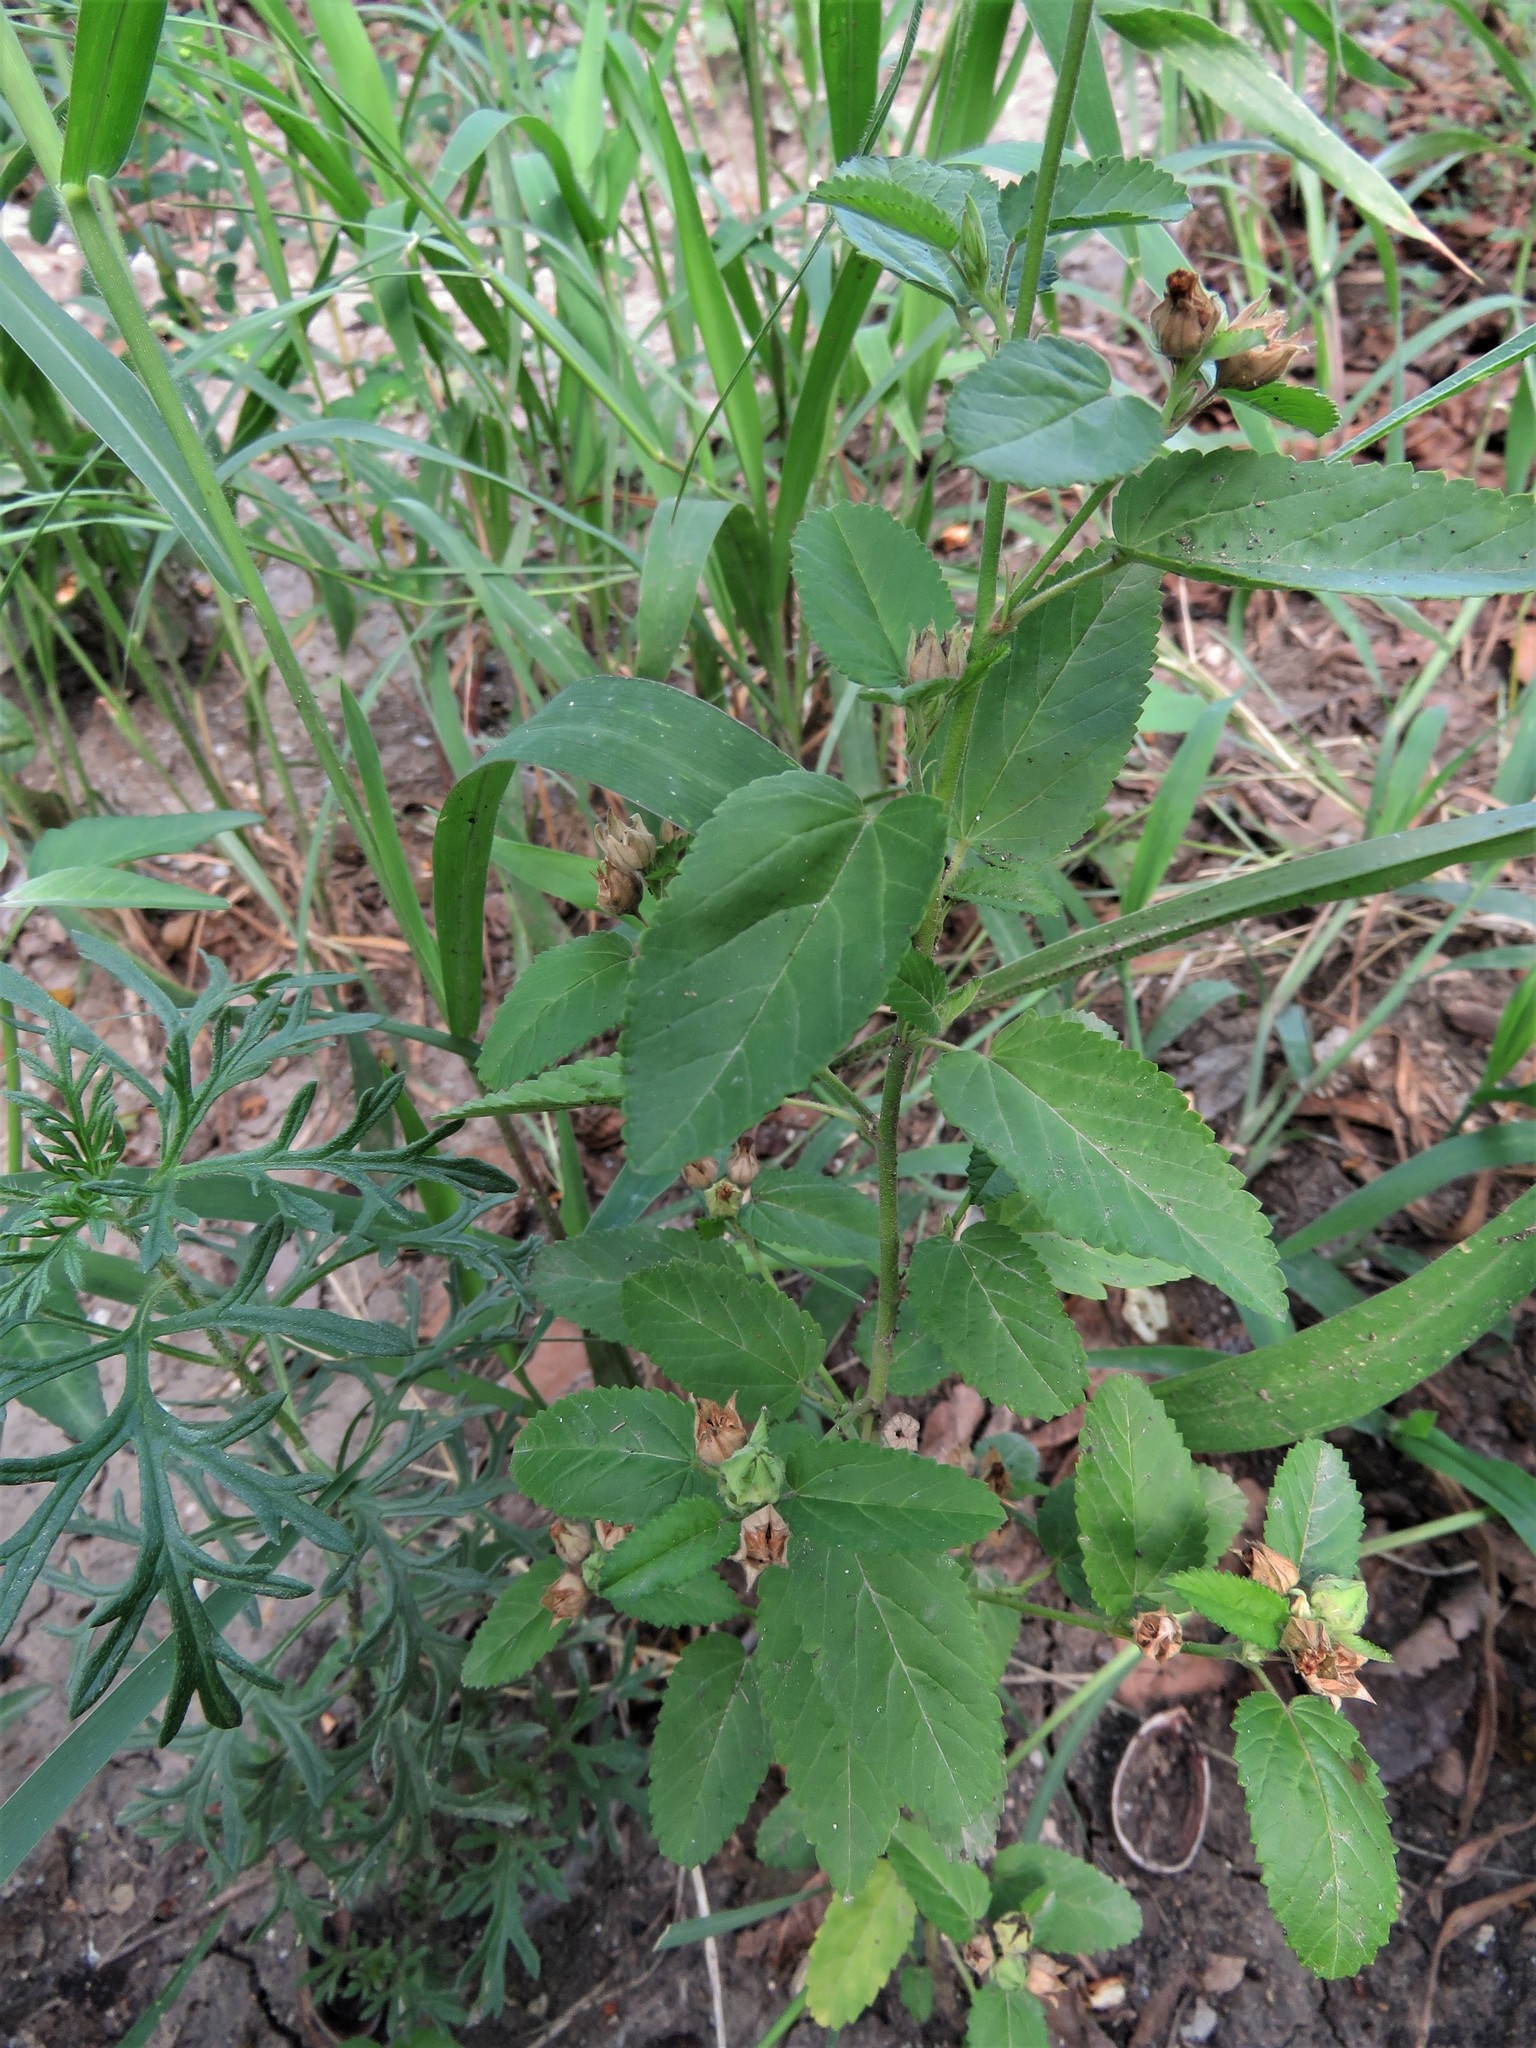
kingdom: Plantae
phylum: Tracheophyta
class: Magnoliopsida
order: Malvales
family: Malvaceae
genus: Sida
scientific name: Sida spinosa
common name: Prickly fanpetals
